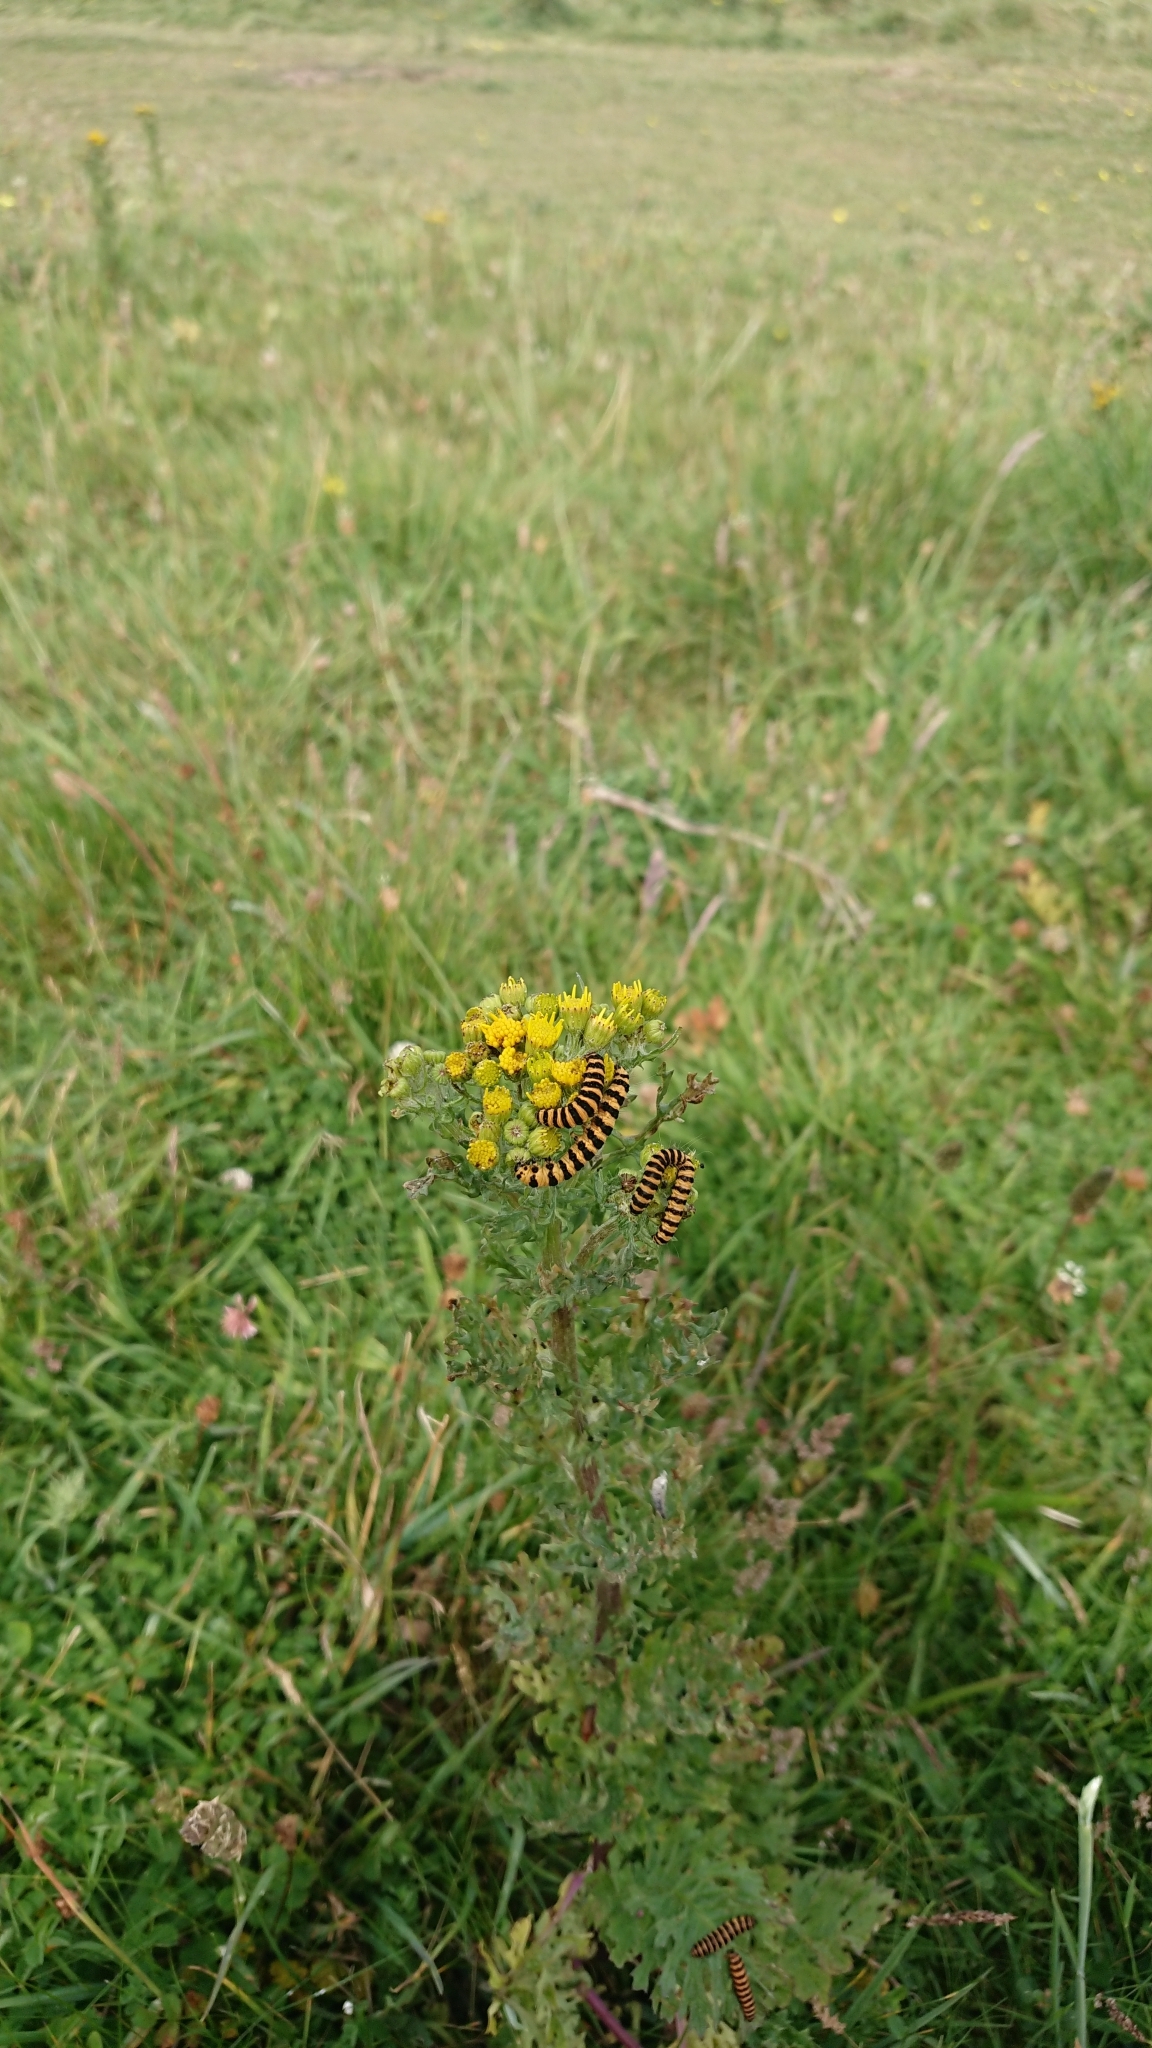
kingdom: Animalia
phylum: Arthropoda
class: Insecta
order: Lepidoptera
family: Erebidae
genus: Tyria
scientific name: Tyria jacobaeae
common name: Cinnabar
